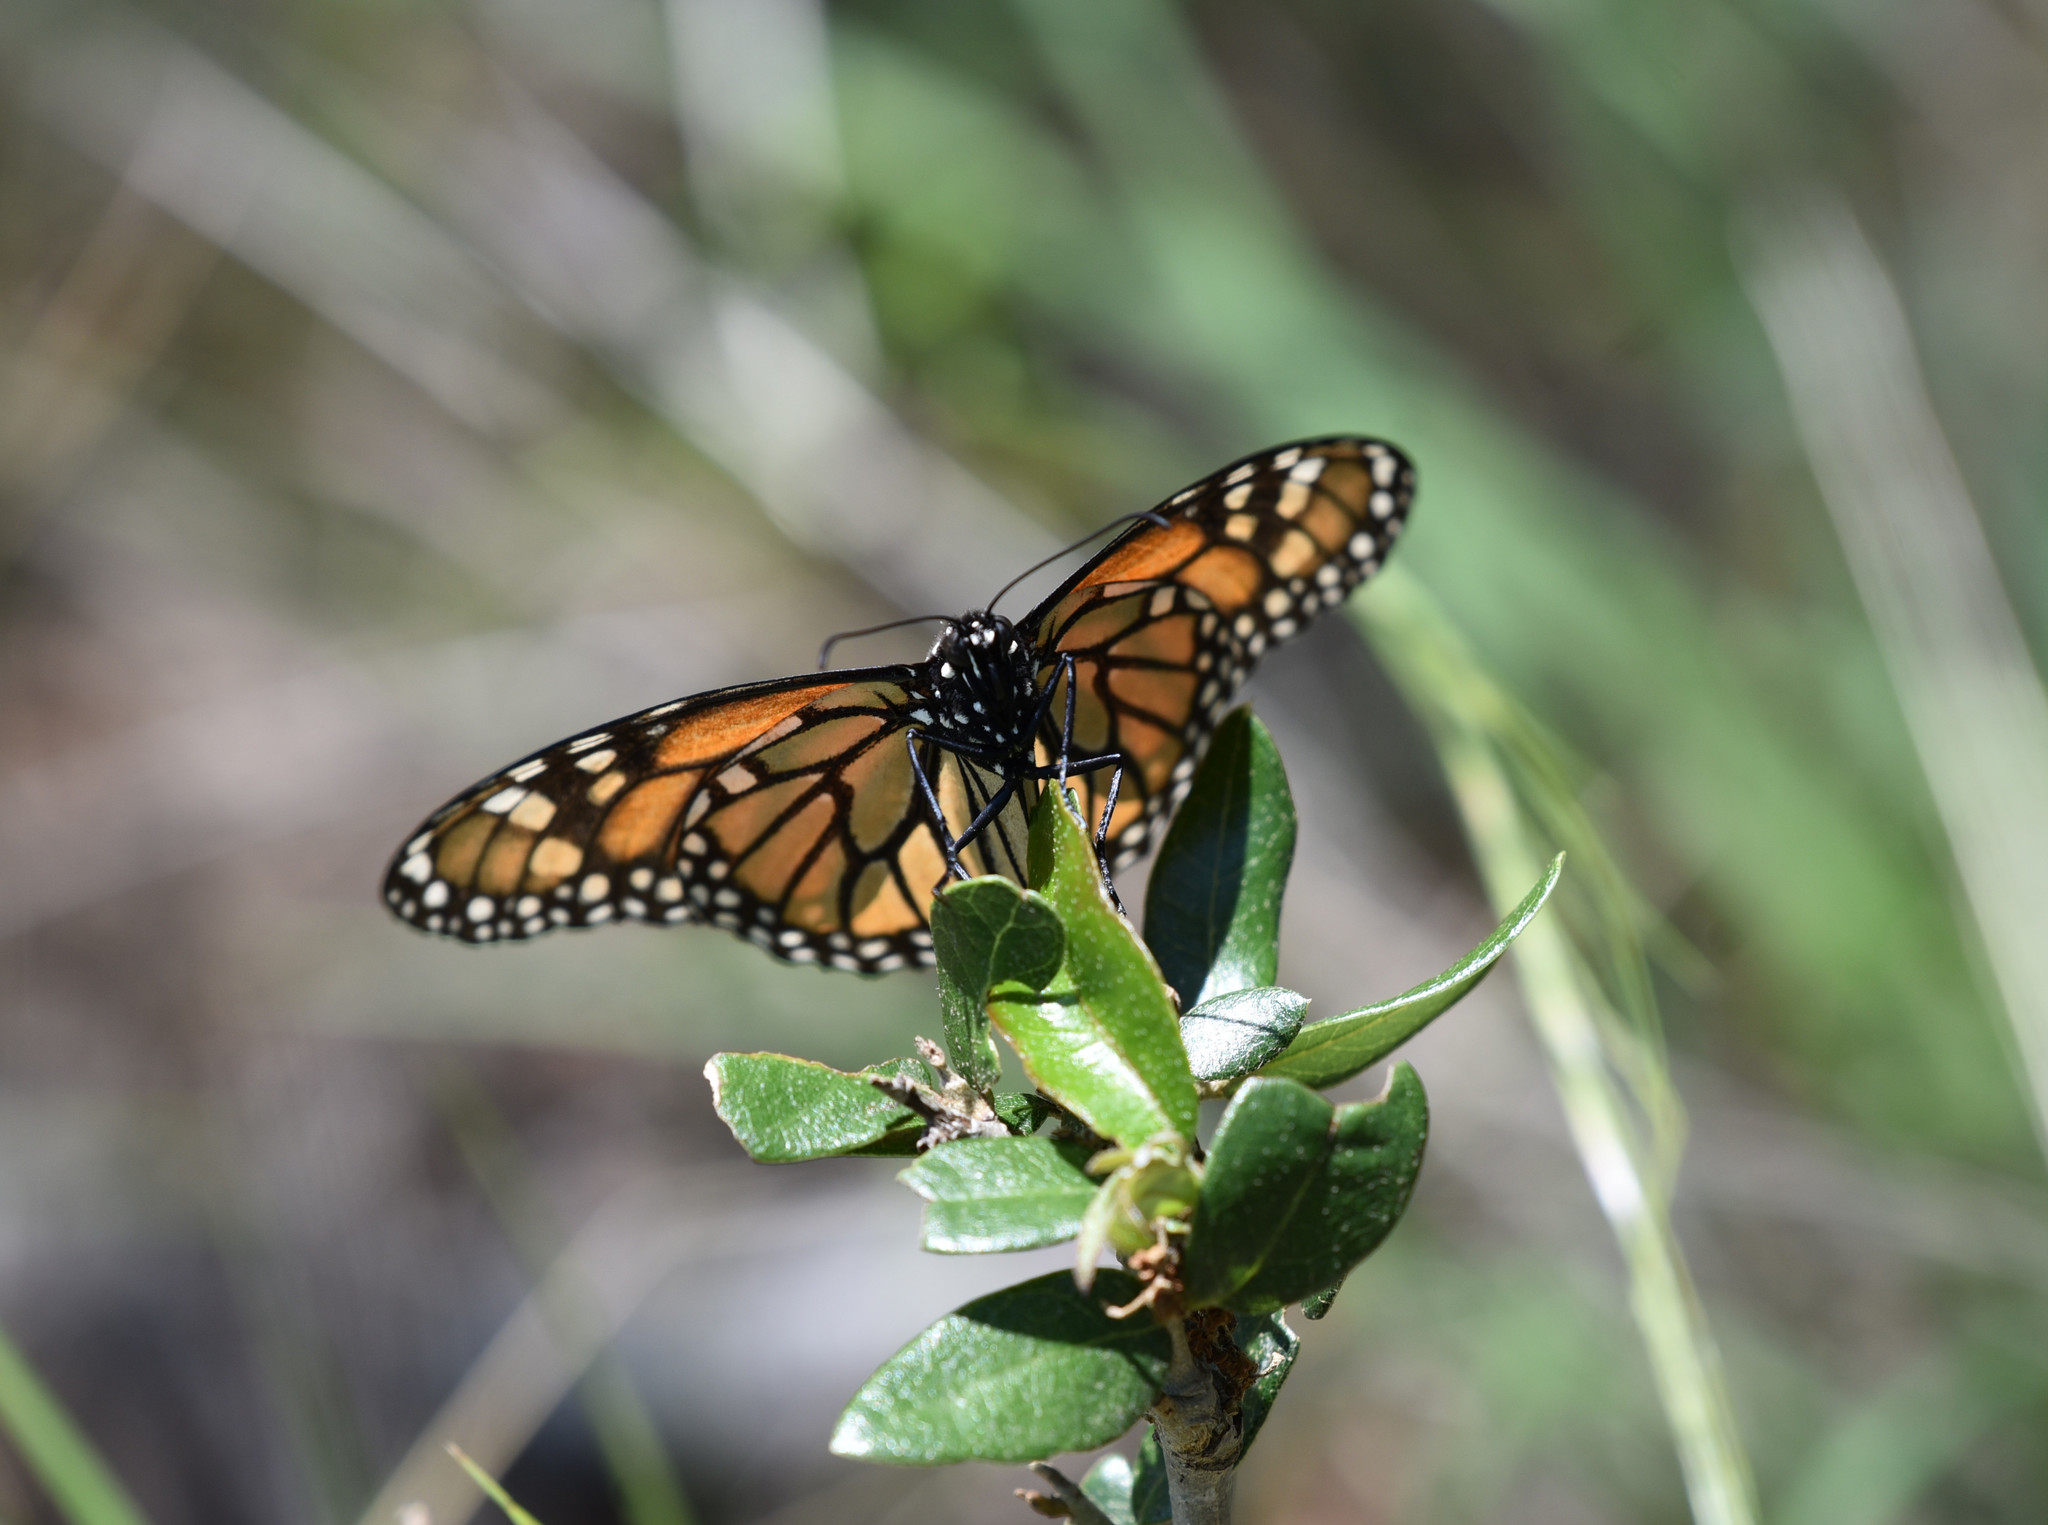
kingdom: Animalia
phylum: Arthropoda
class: Insecta
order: Lepidoptera
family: Nymphalidae
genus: Danaus
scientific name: Danaus plexippus
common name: Monarch
